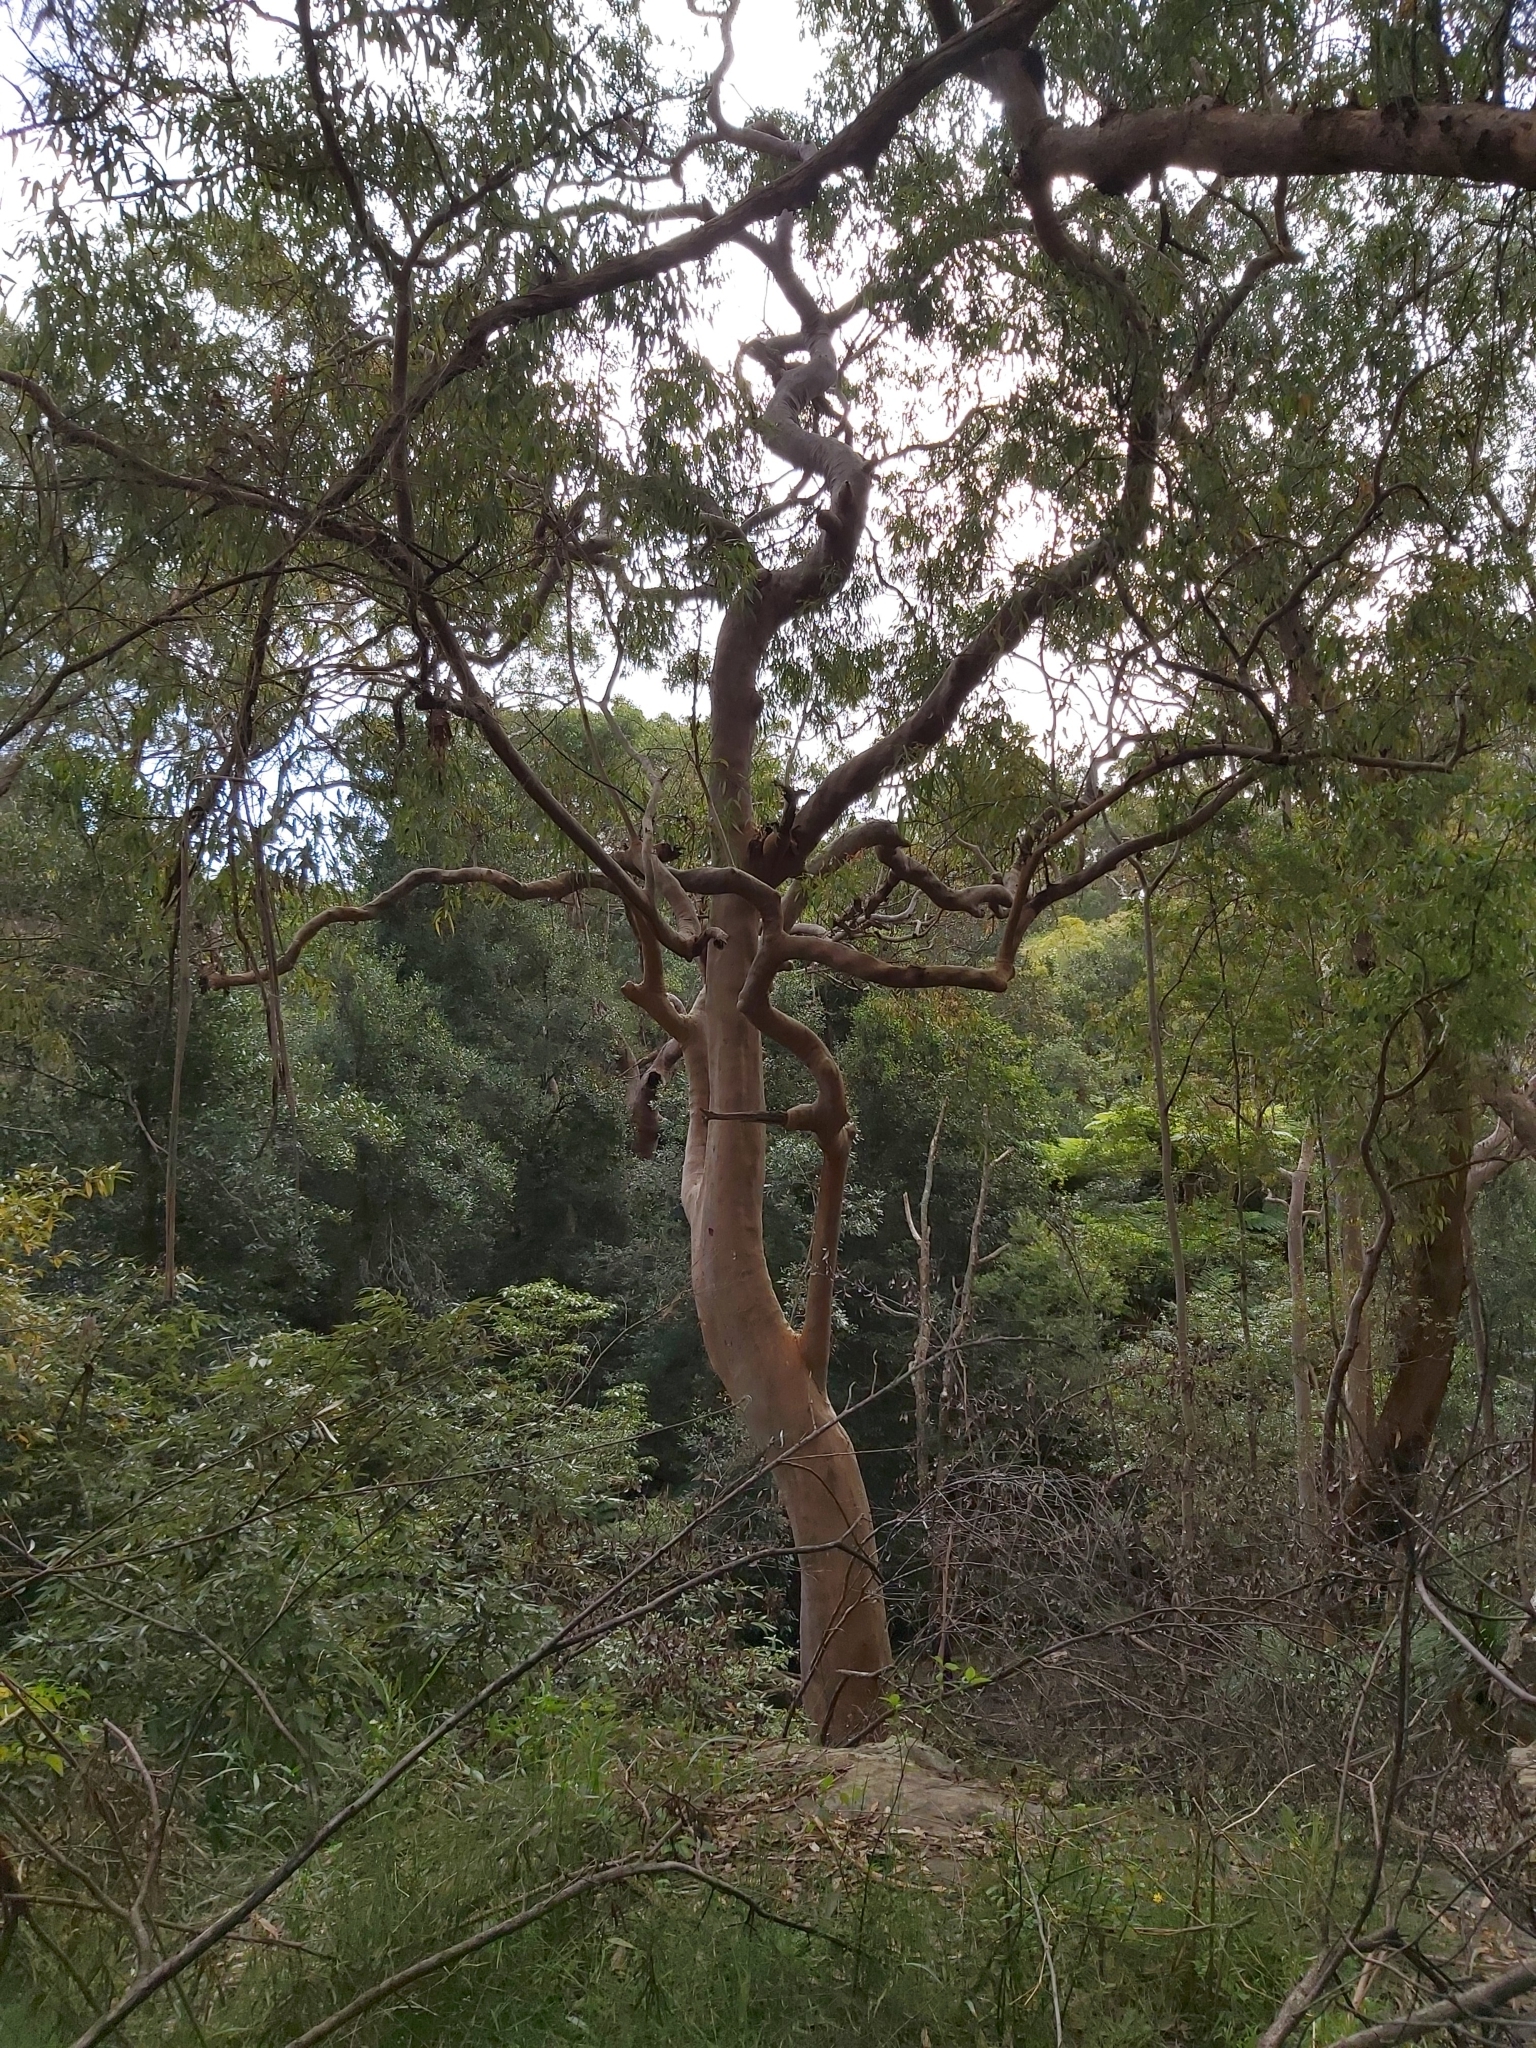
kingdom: Plantae
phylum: Tracheophyta
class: Magnoliopsida
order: Myrtales
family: Myrtaceae
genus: Angophora
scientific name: Angophora costata
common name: Gum myrtle
